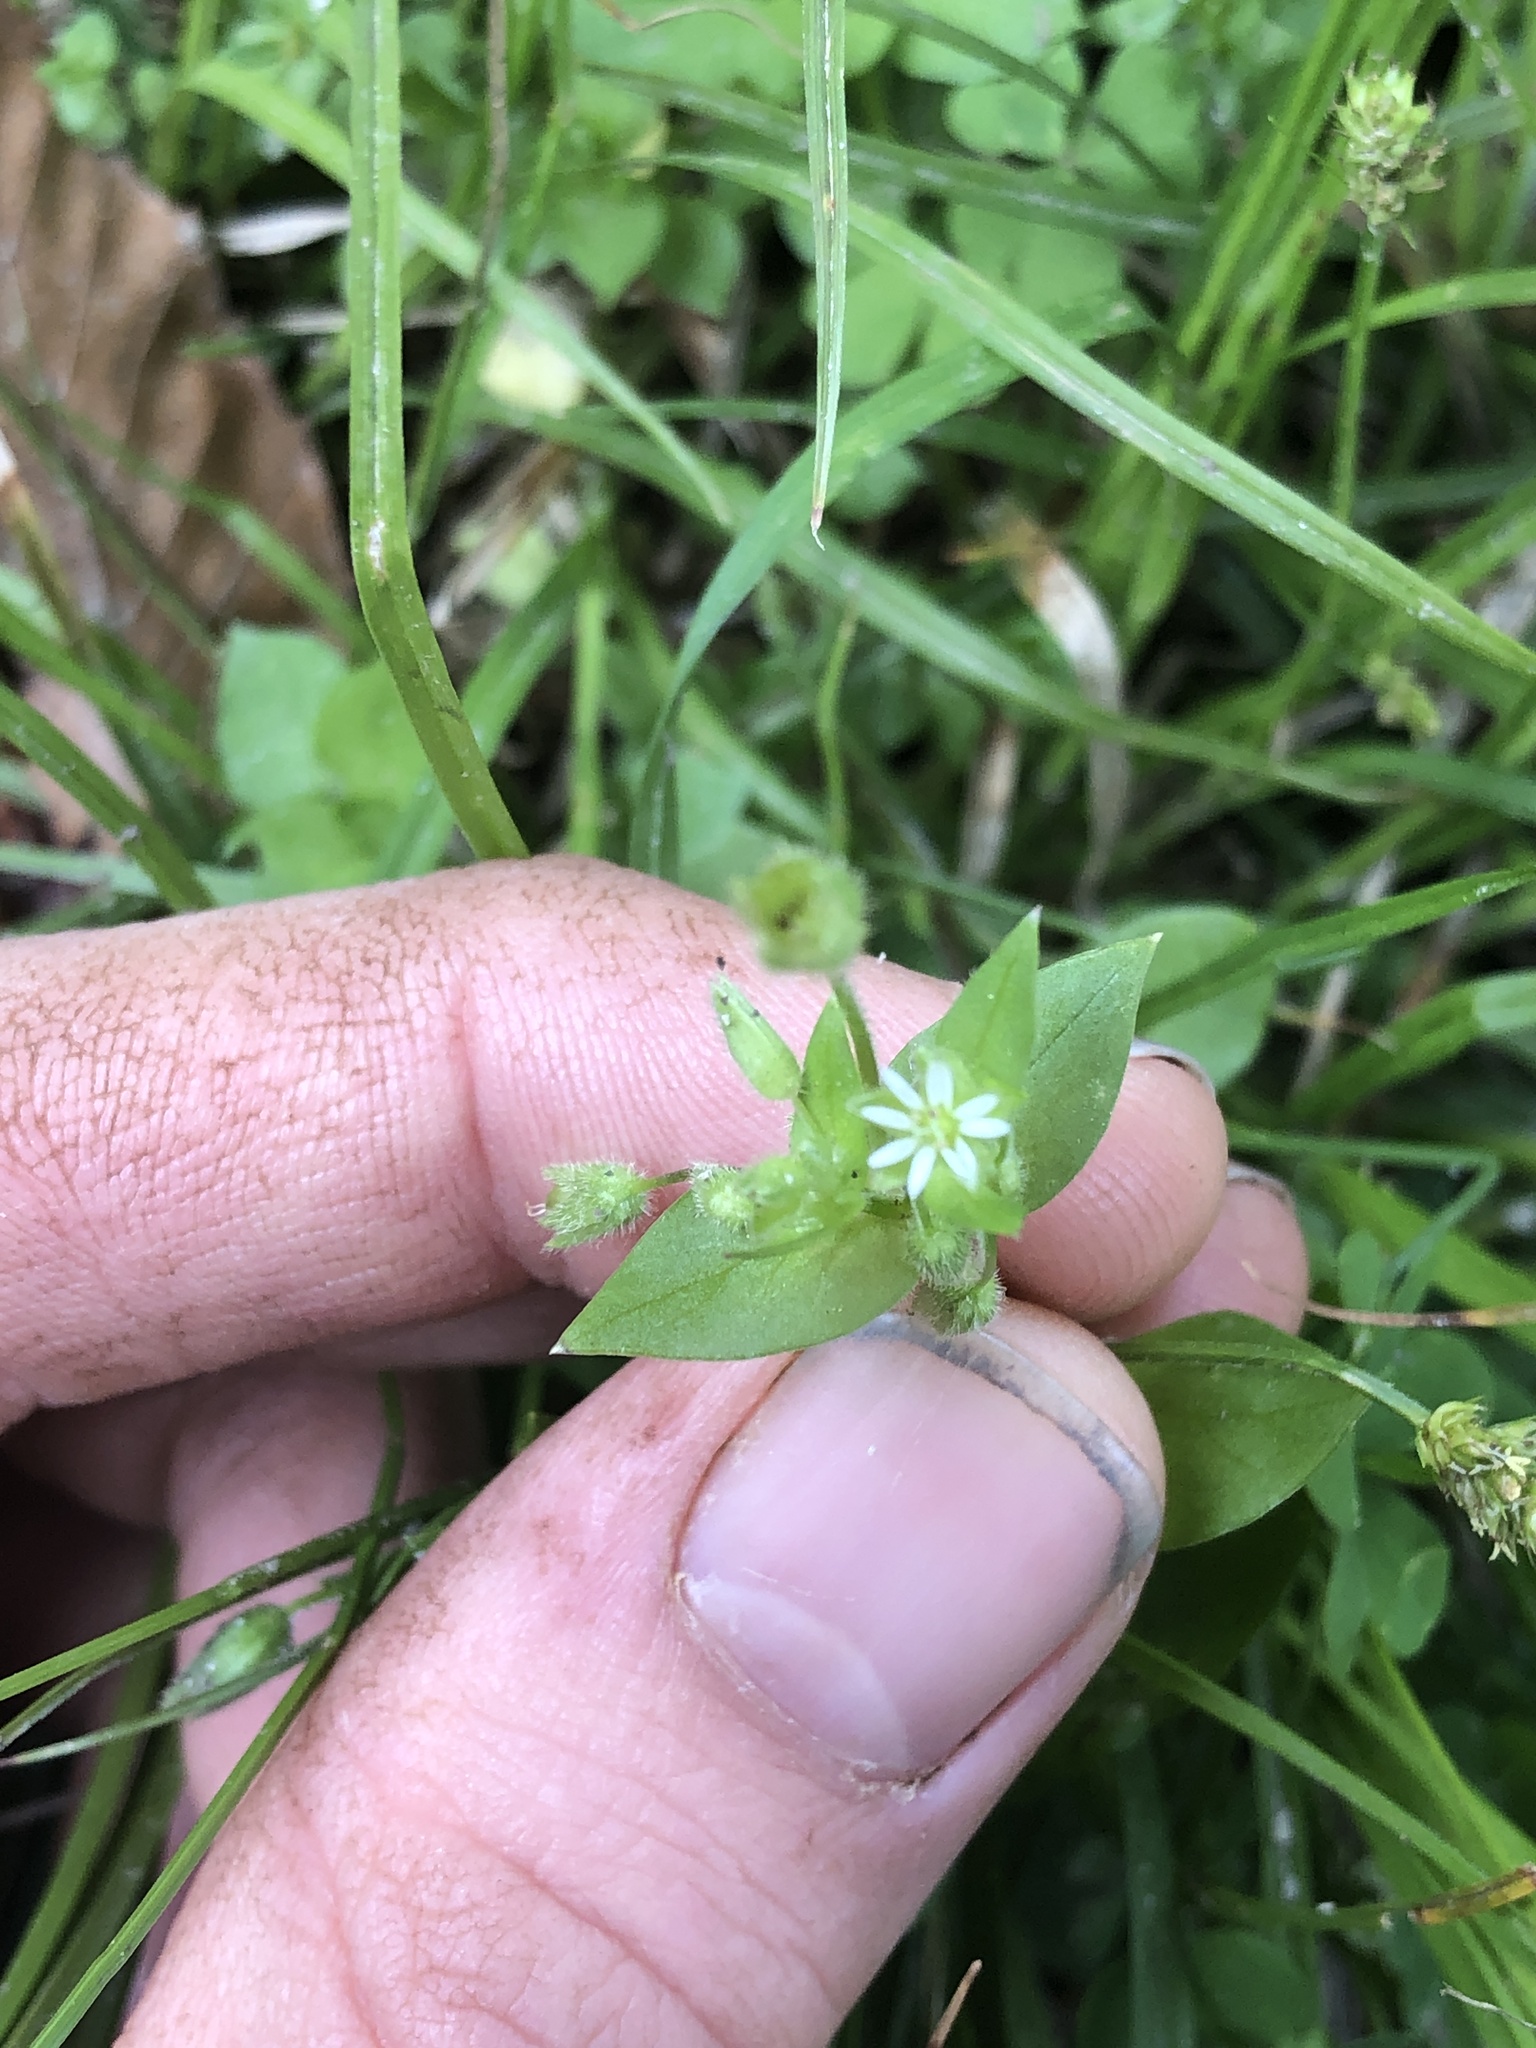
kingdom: Plantae
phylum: Tracheophyta
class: Magnoliopsida
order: Caryophyllales
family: Caryophyllaceae
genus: Stellaria
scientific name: Stellaria media
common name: Common chickweed
